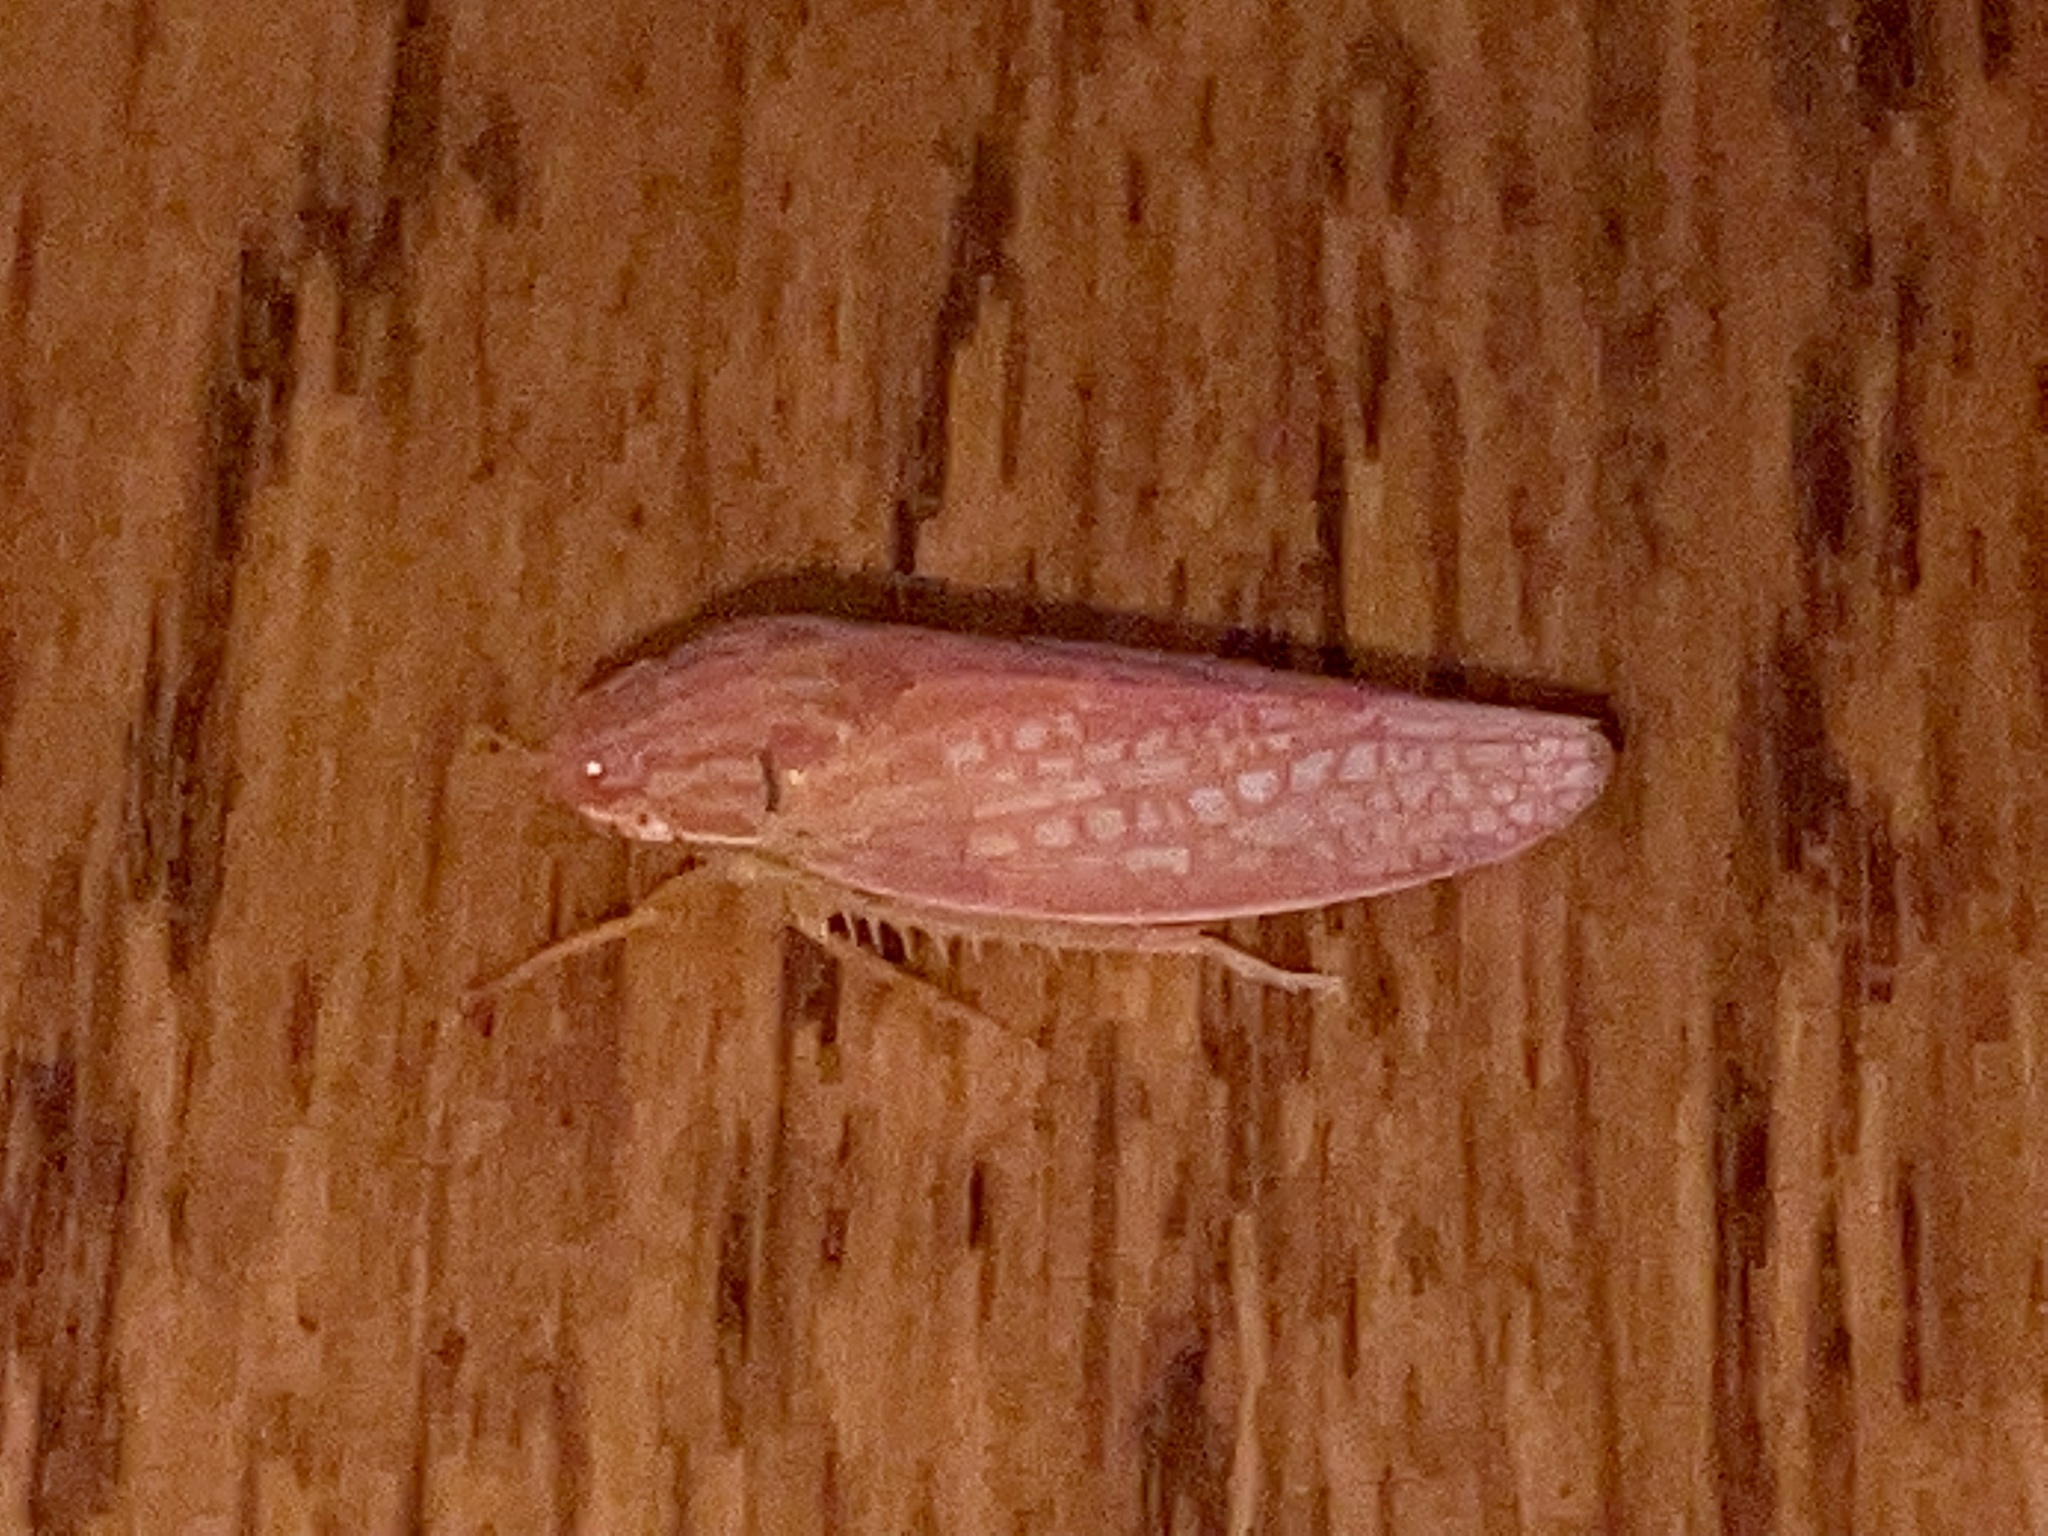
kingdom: Animalia
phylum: Arthropoda
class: Insecta
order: Hemiptera
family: Cicadellidae
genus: Gyponana
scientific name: Gyponana gladia
